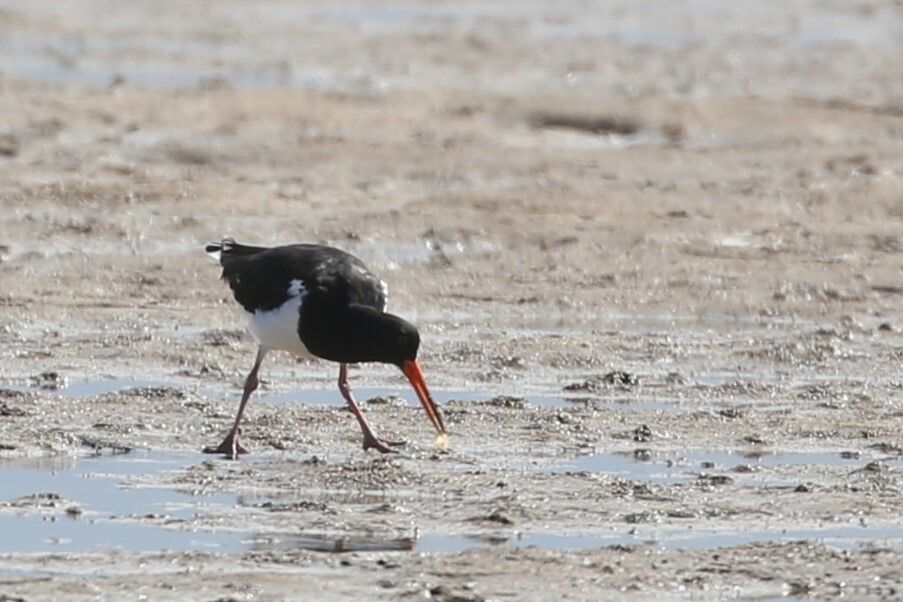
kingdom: Animalia
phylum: Chordata
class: Aves
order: Charadriiformes
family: Haematopodidae
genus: Haematopus
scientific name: Haematopus longirostris
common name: Pied oystercatcher
